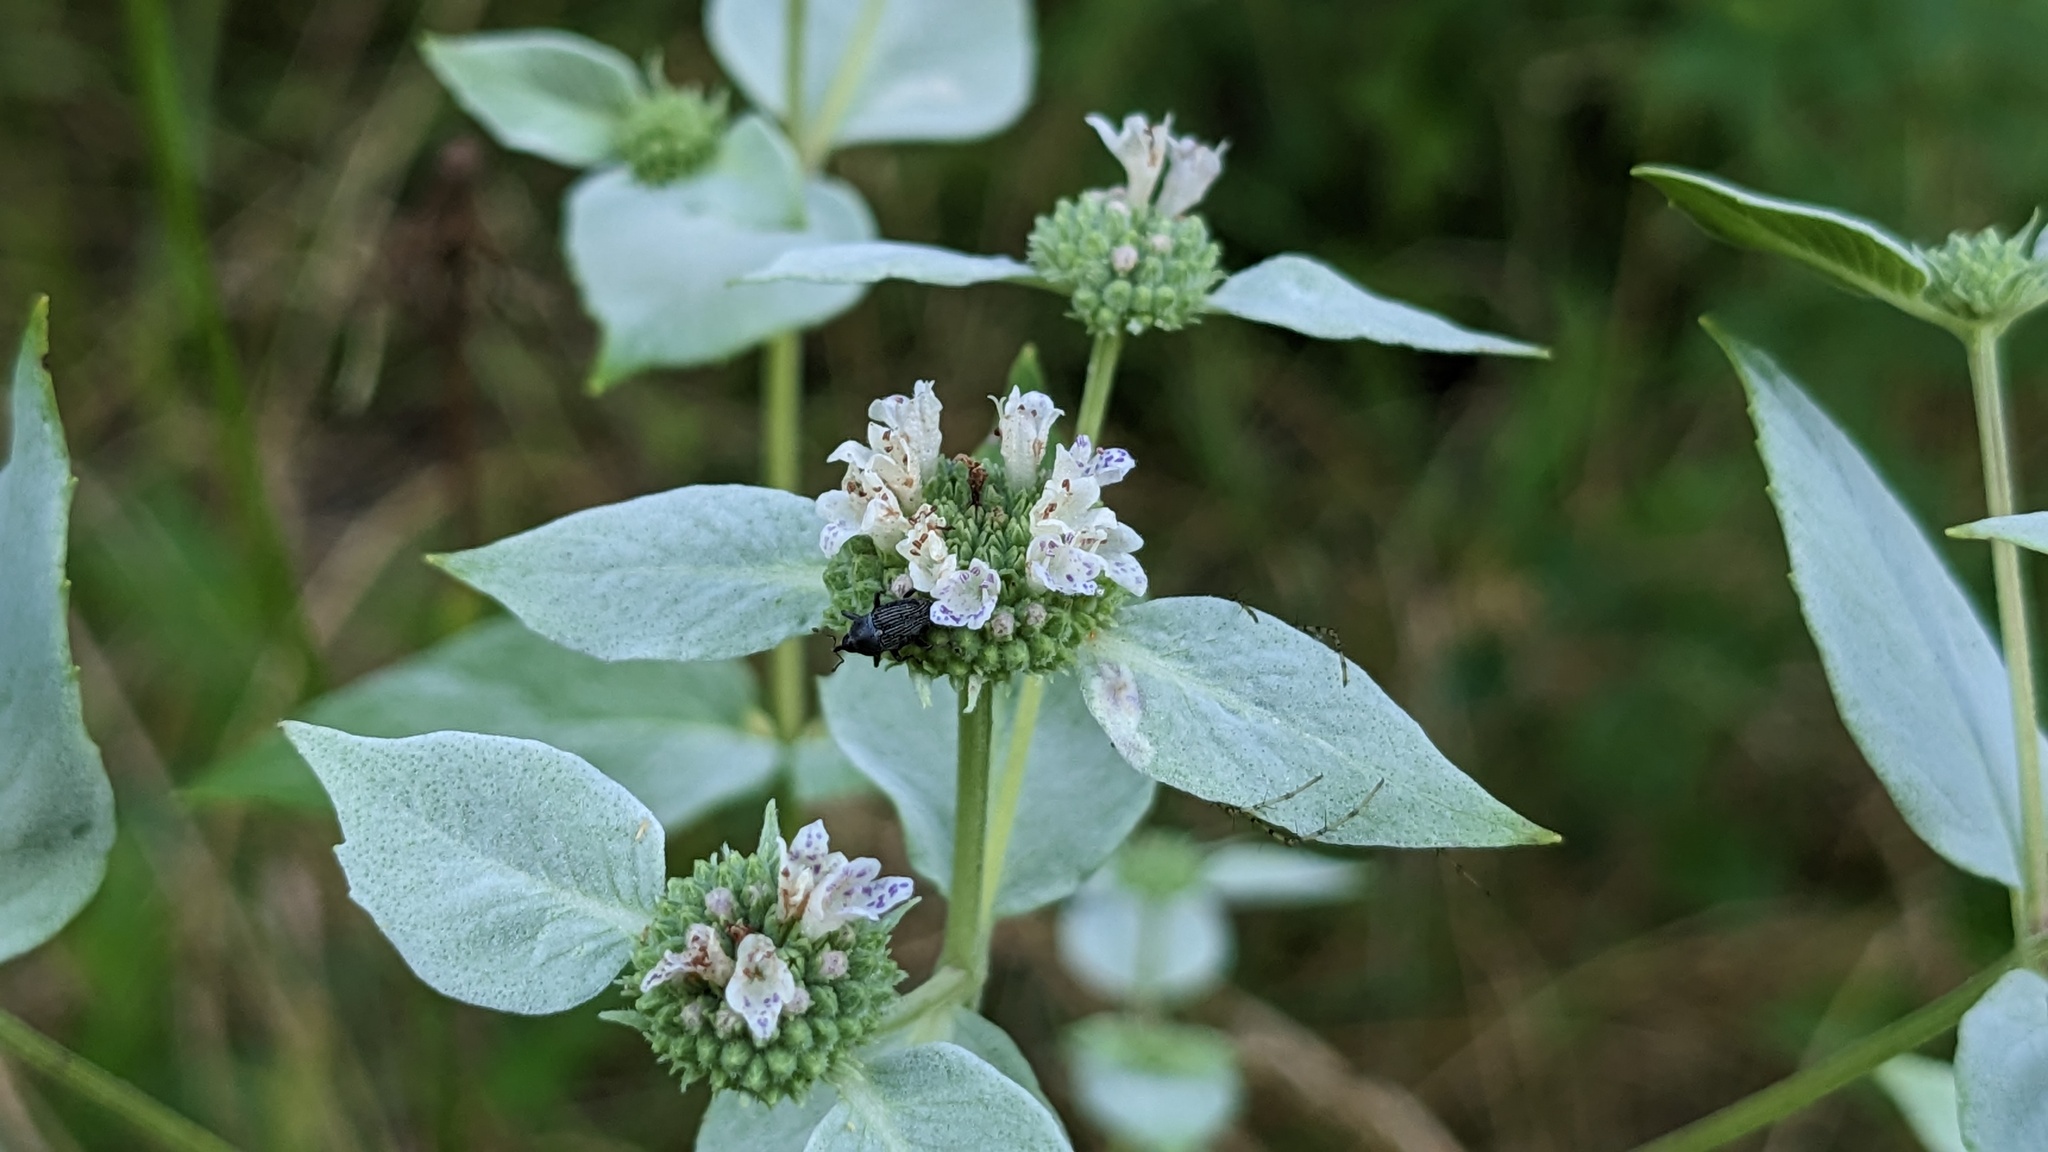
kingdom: Plantae
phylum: Tracheophyta
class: Magnoliopsida
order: Lamiales
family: Lamiaceae
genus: Pycnanthemum
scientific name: Pycnanthemum muticum
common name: Blunt mountain-mint
